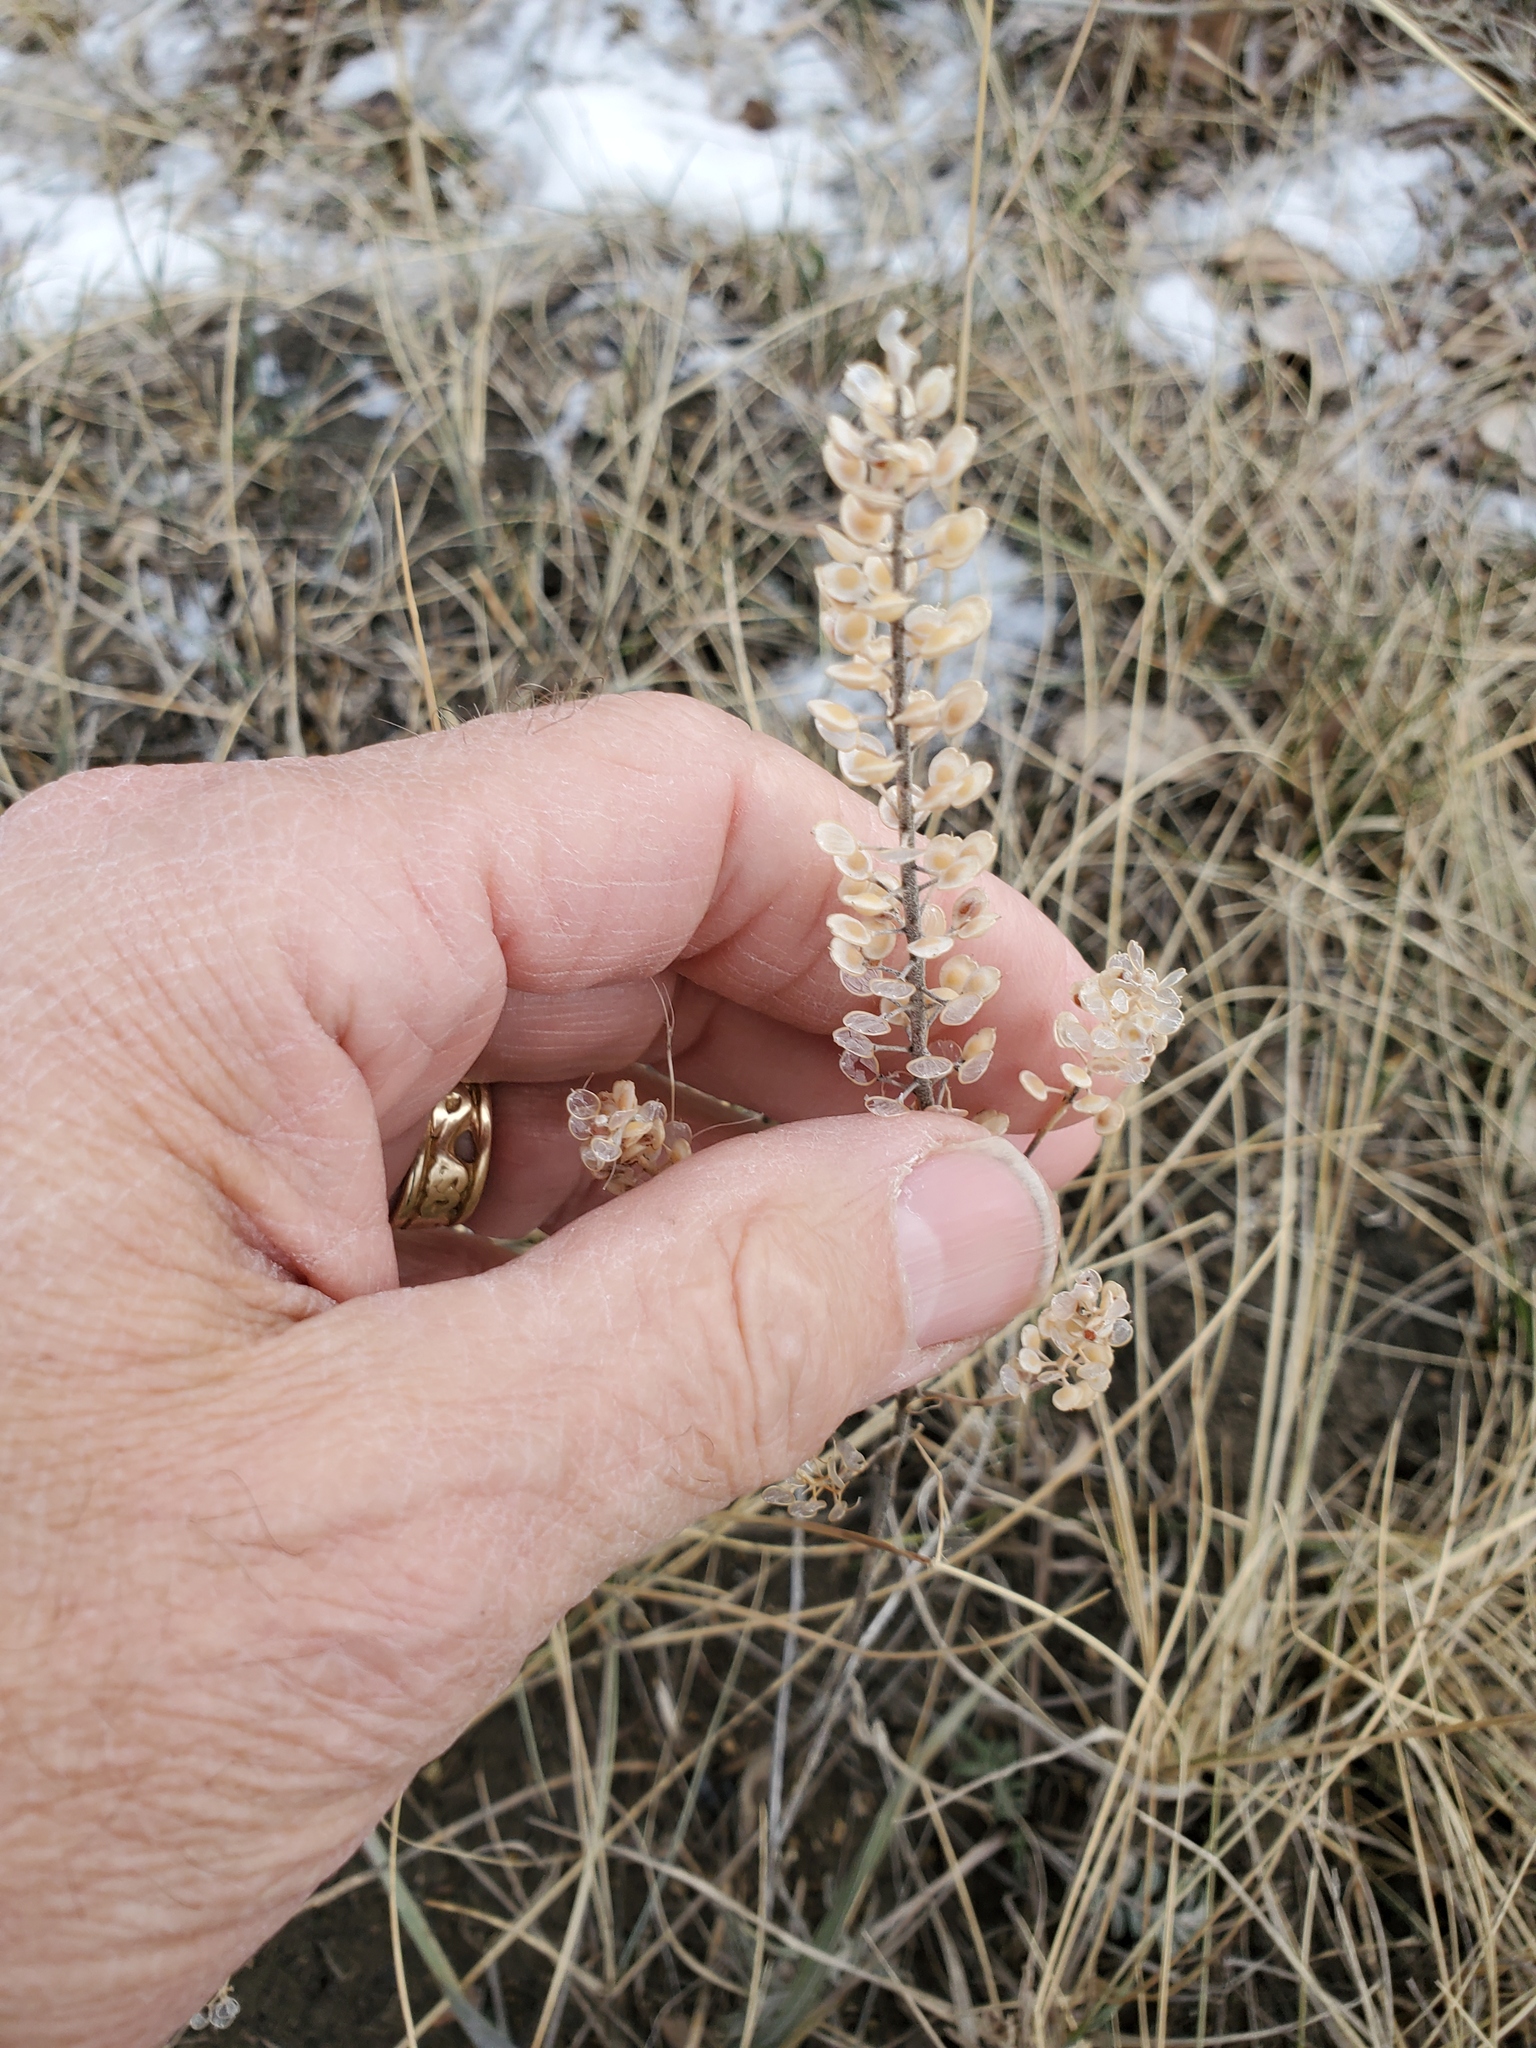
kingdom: Plantae
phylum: Tracheophyta
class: Magnoliopsida
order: Brassicales
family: Brassicaceae
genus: Alyssum
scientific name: Alyssum turkestanicum
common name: Desert alyssum
